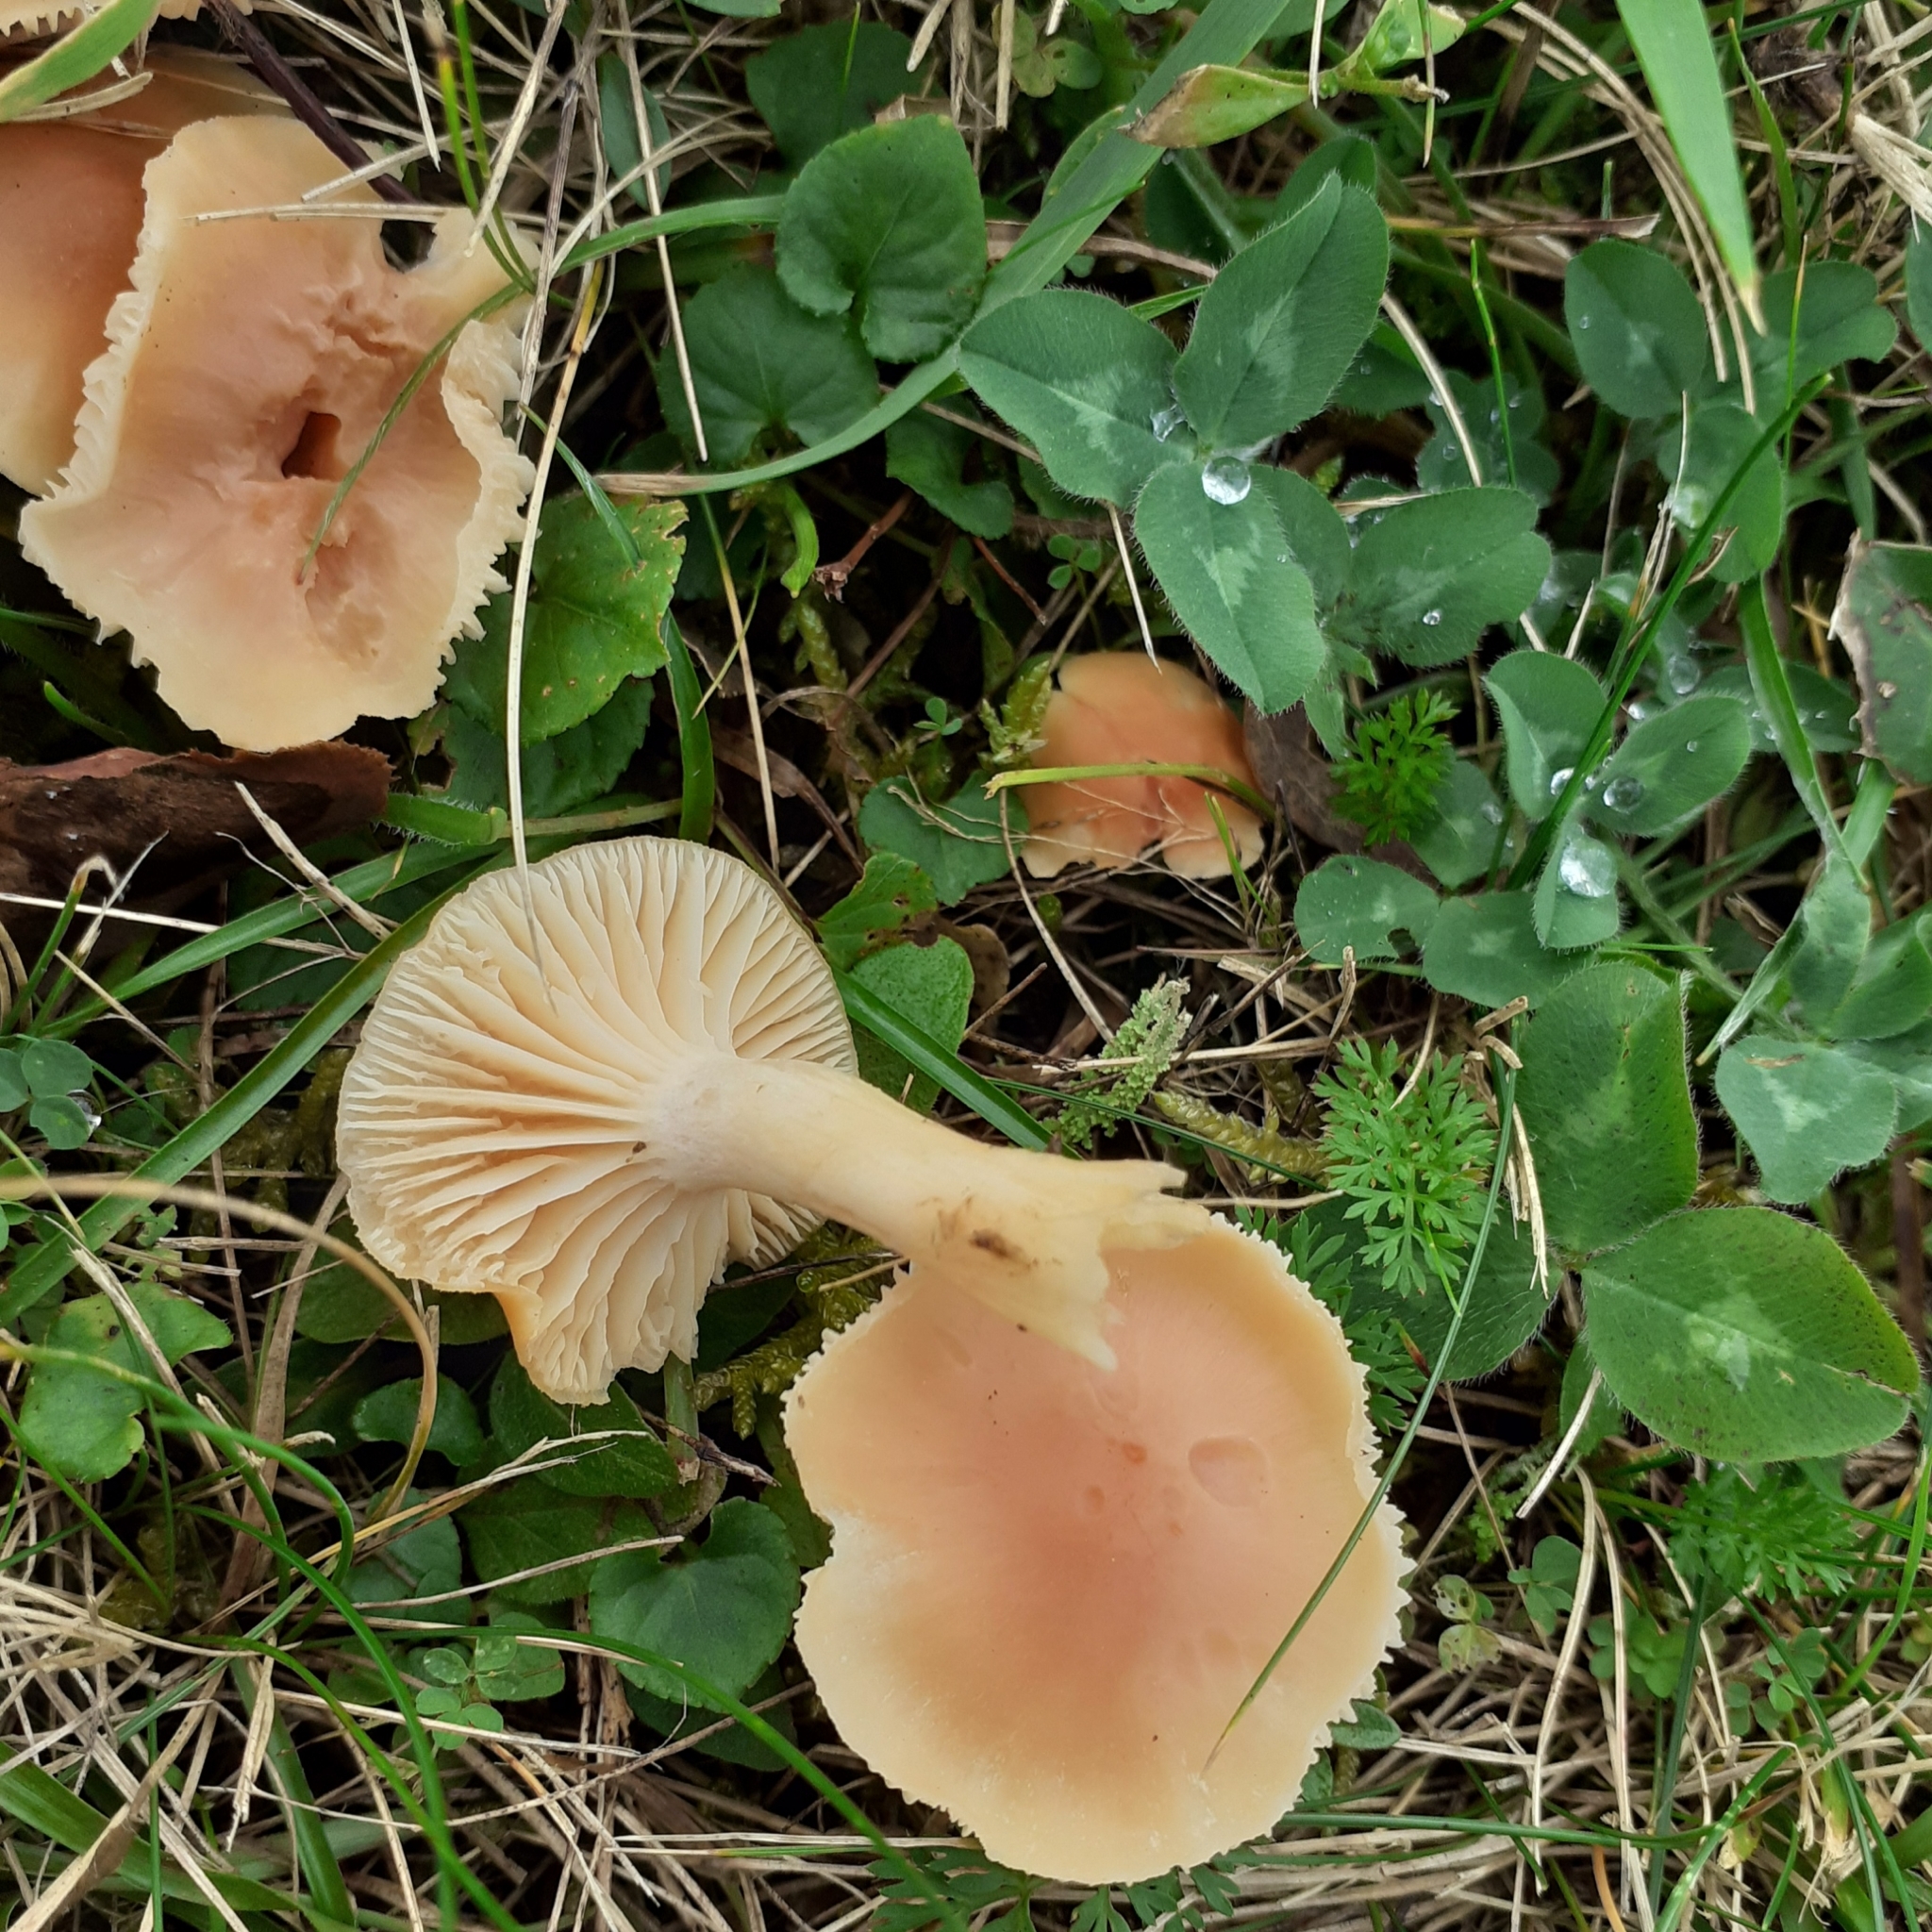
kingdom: Fungi
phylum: Basidiomycota
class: Agaricomycetes
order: Agaricales
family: Hygrophoraceae
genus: Cuphophyllus
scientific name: Cuphophyllus pratensis
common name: Meadow waxcap
